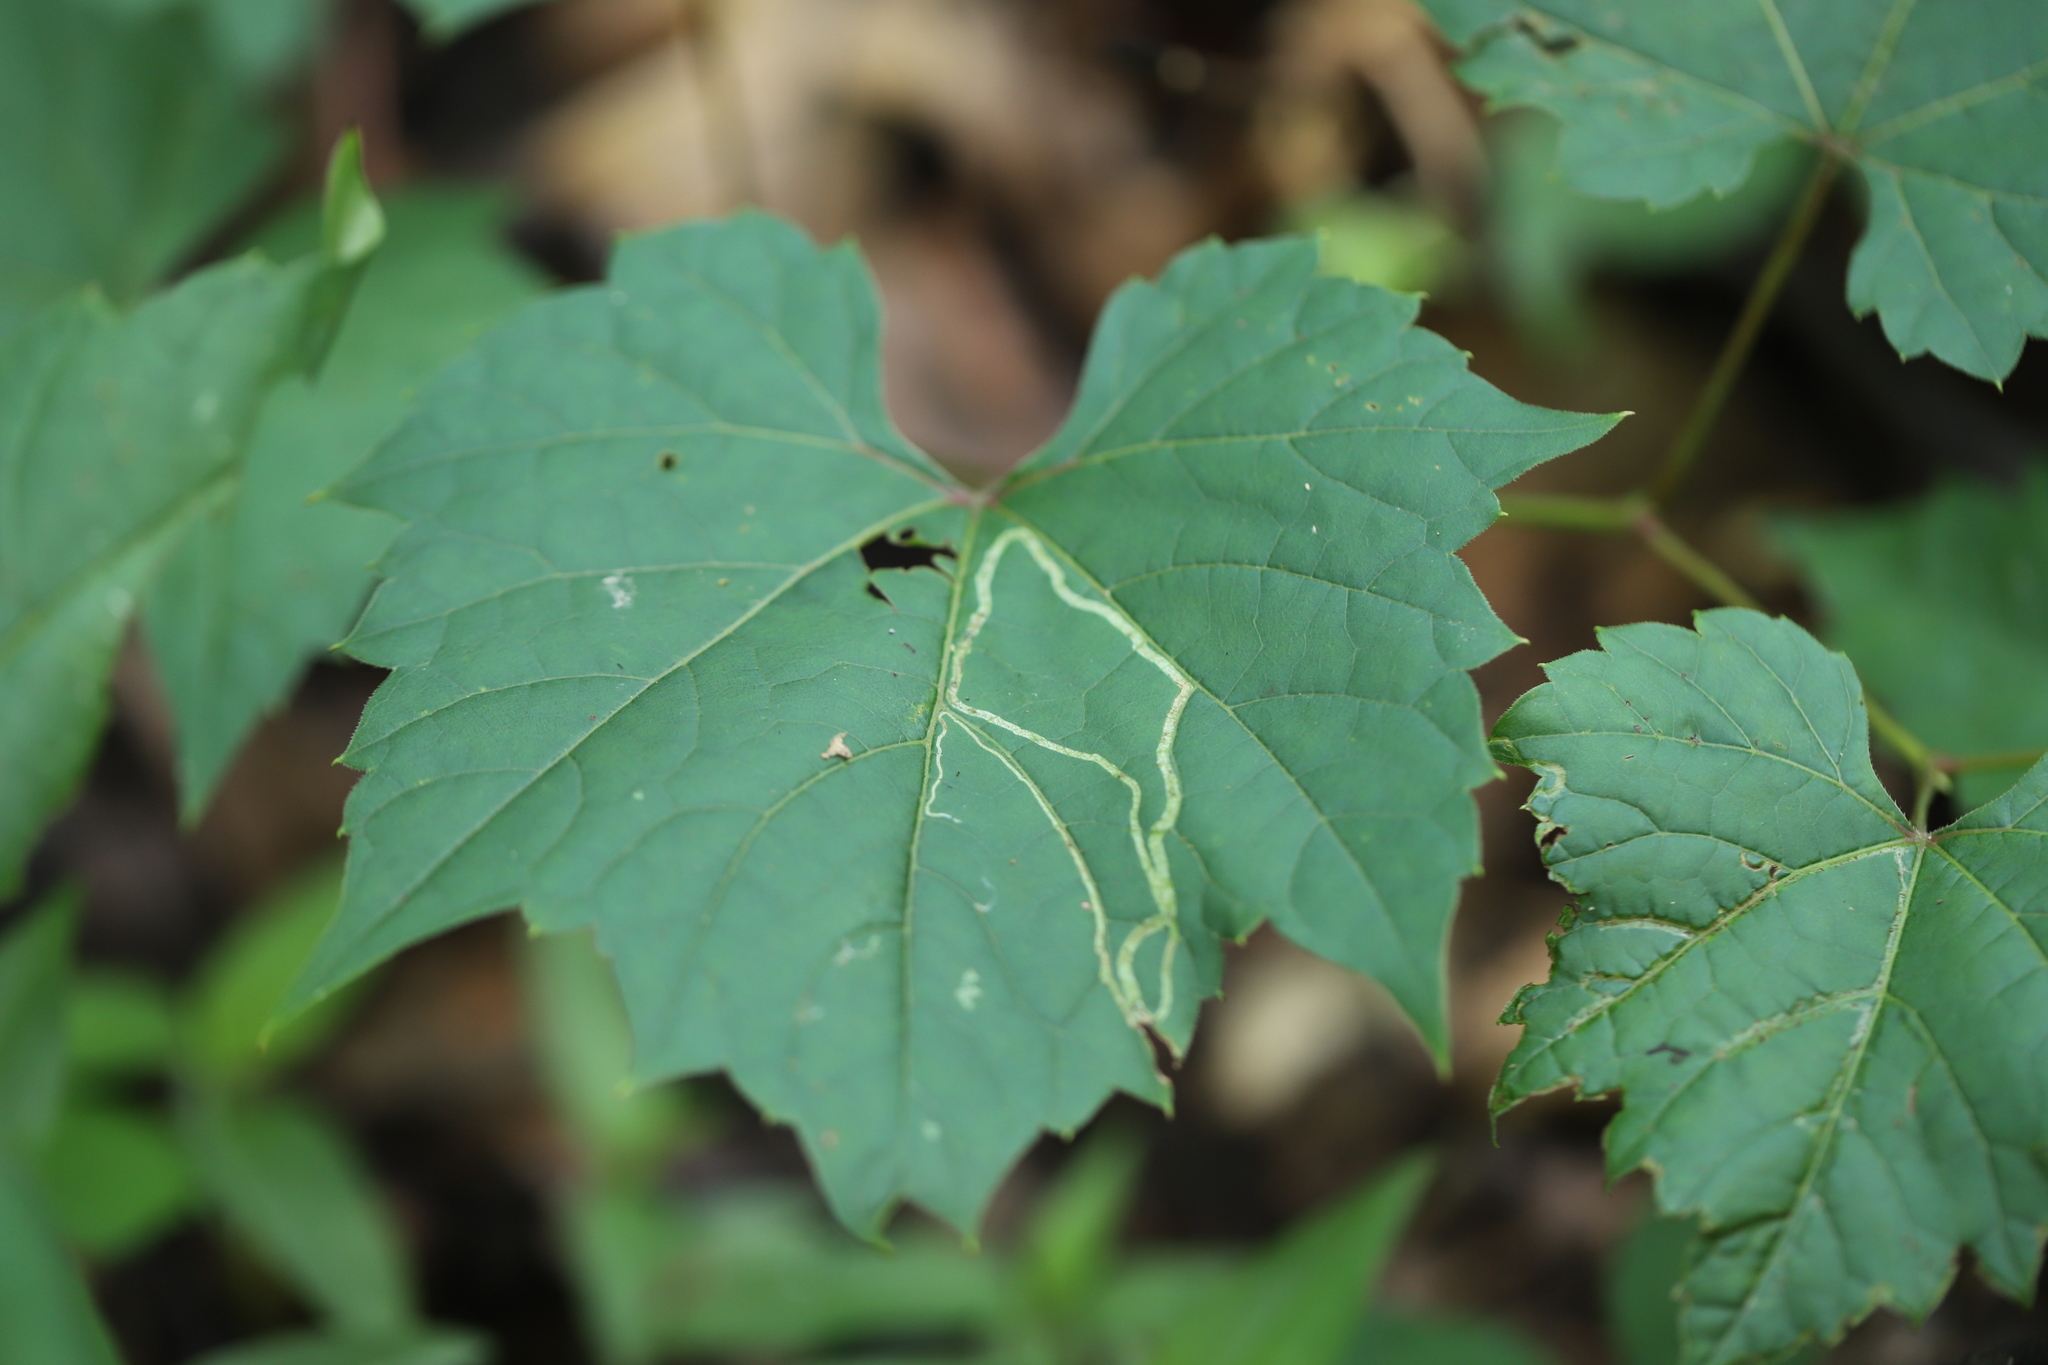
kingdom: Animalia
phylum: Arthropoda
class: Insecta
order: Lepidoptera
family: Gracillariidae
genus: Phyllocnistis
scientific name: Phyllocnistis vitifoliella
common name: Grape leaf-miner moth
